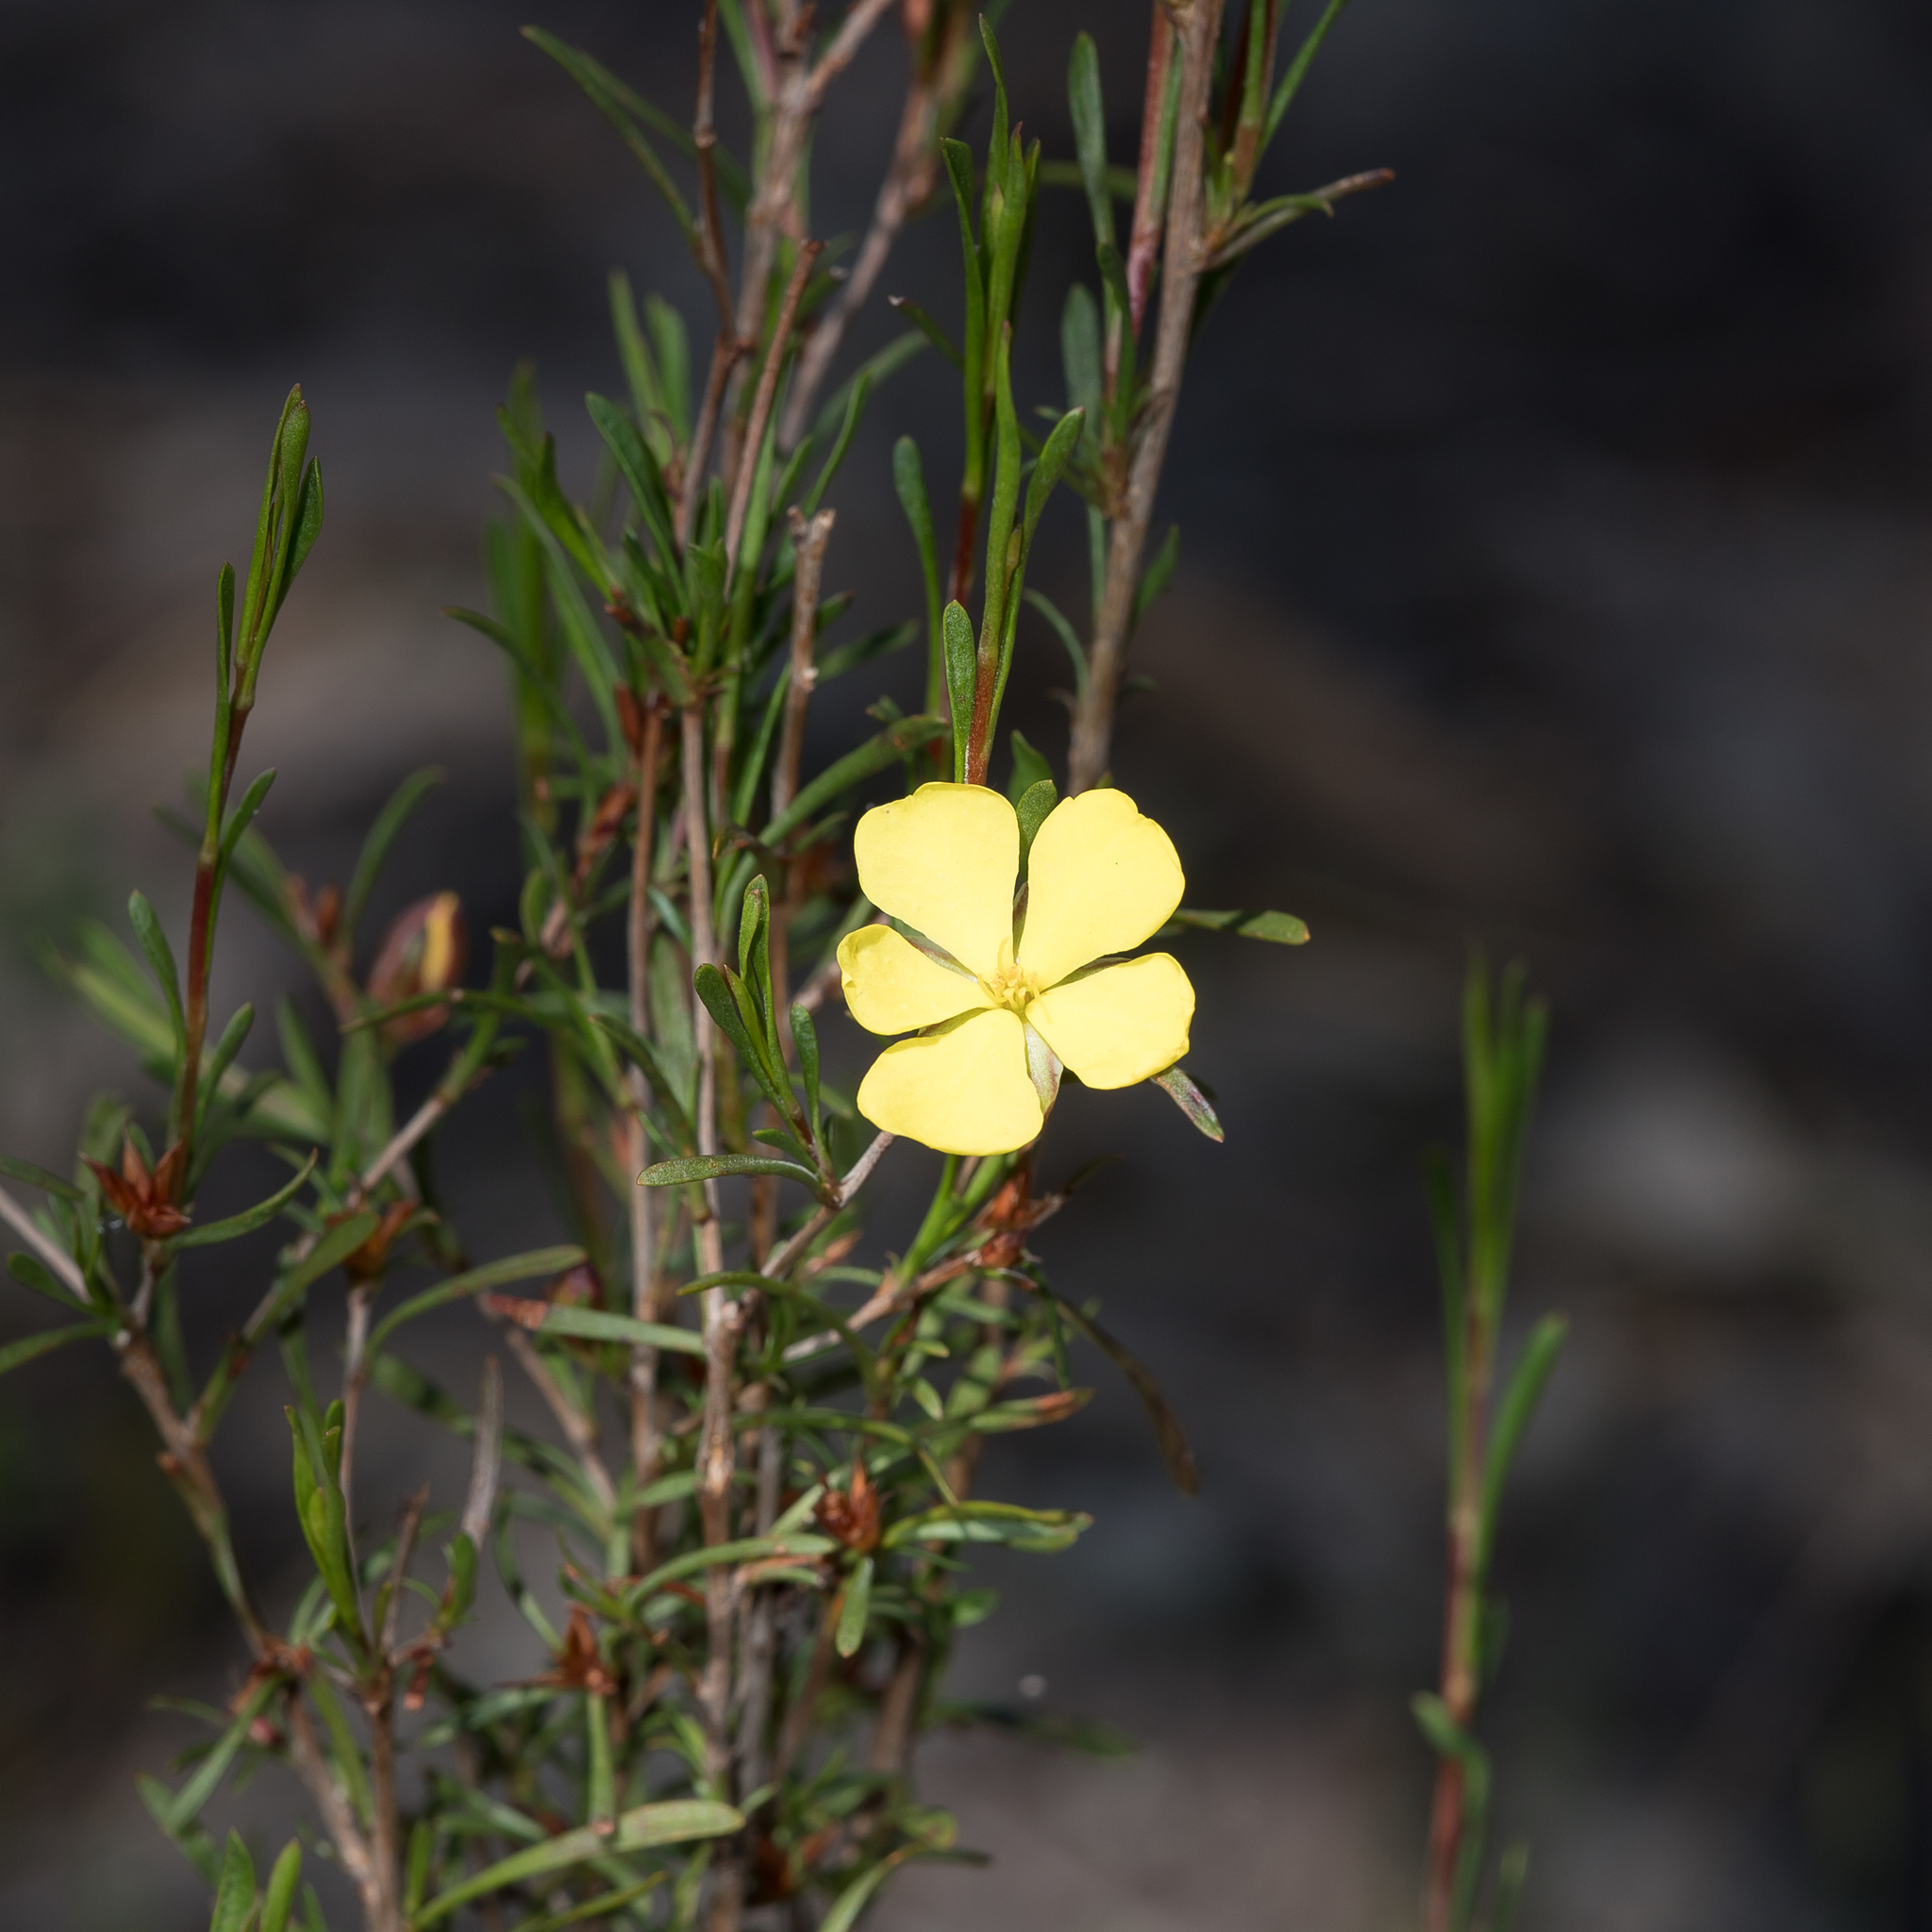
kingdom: Plantae
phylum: Tracheophyta
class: Magnoliopsida
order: Dilleniales
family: Dilleniaceae
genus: Hibbertia
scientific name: Hibbertia virgata
